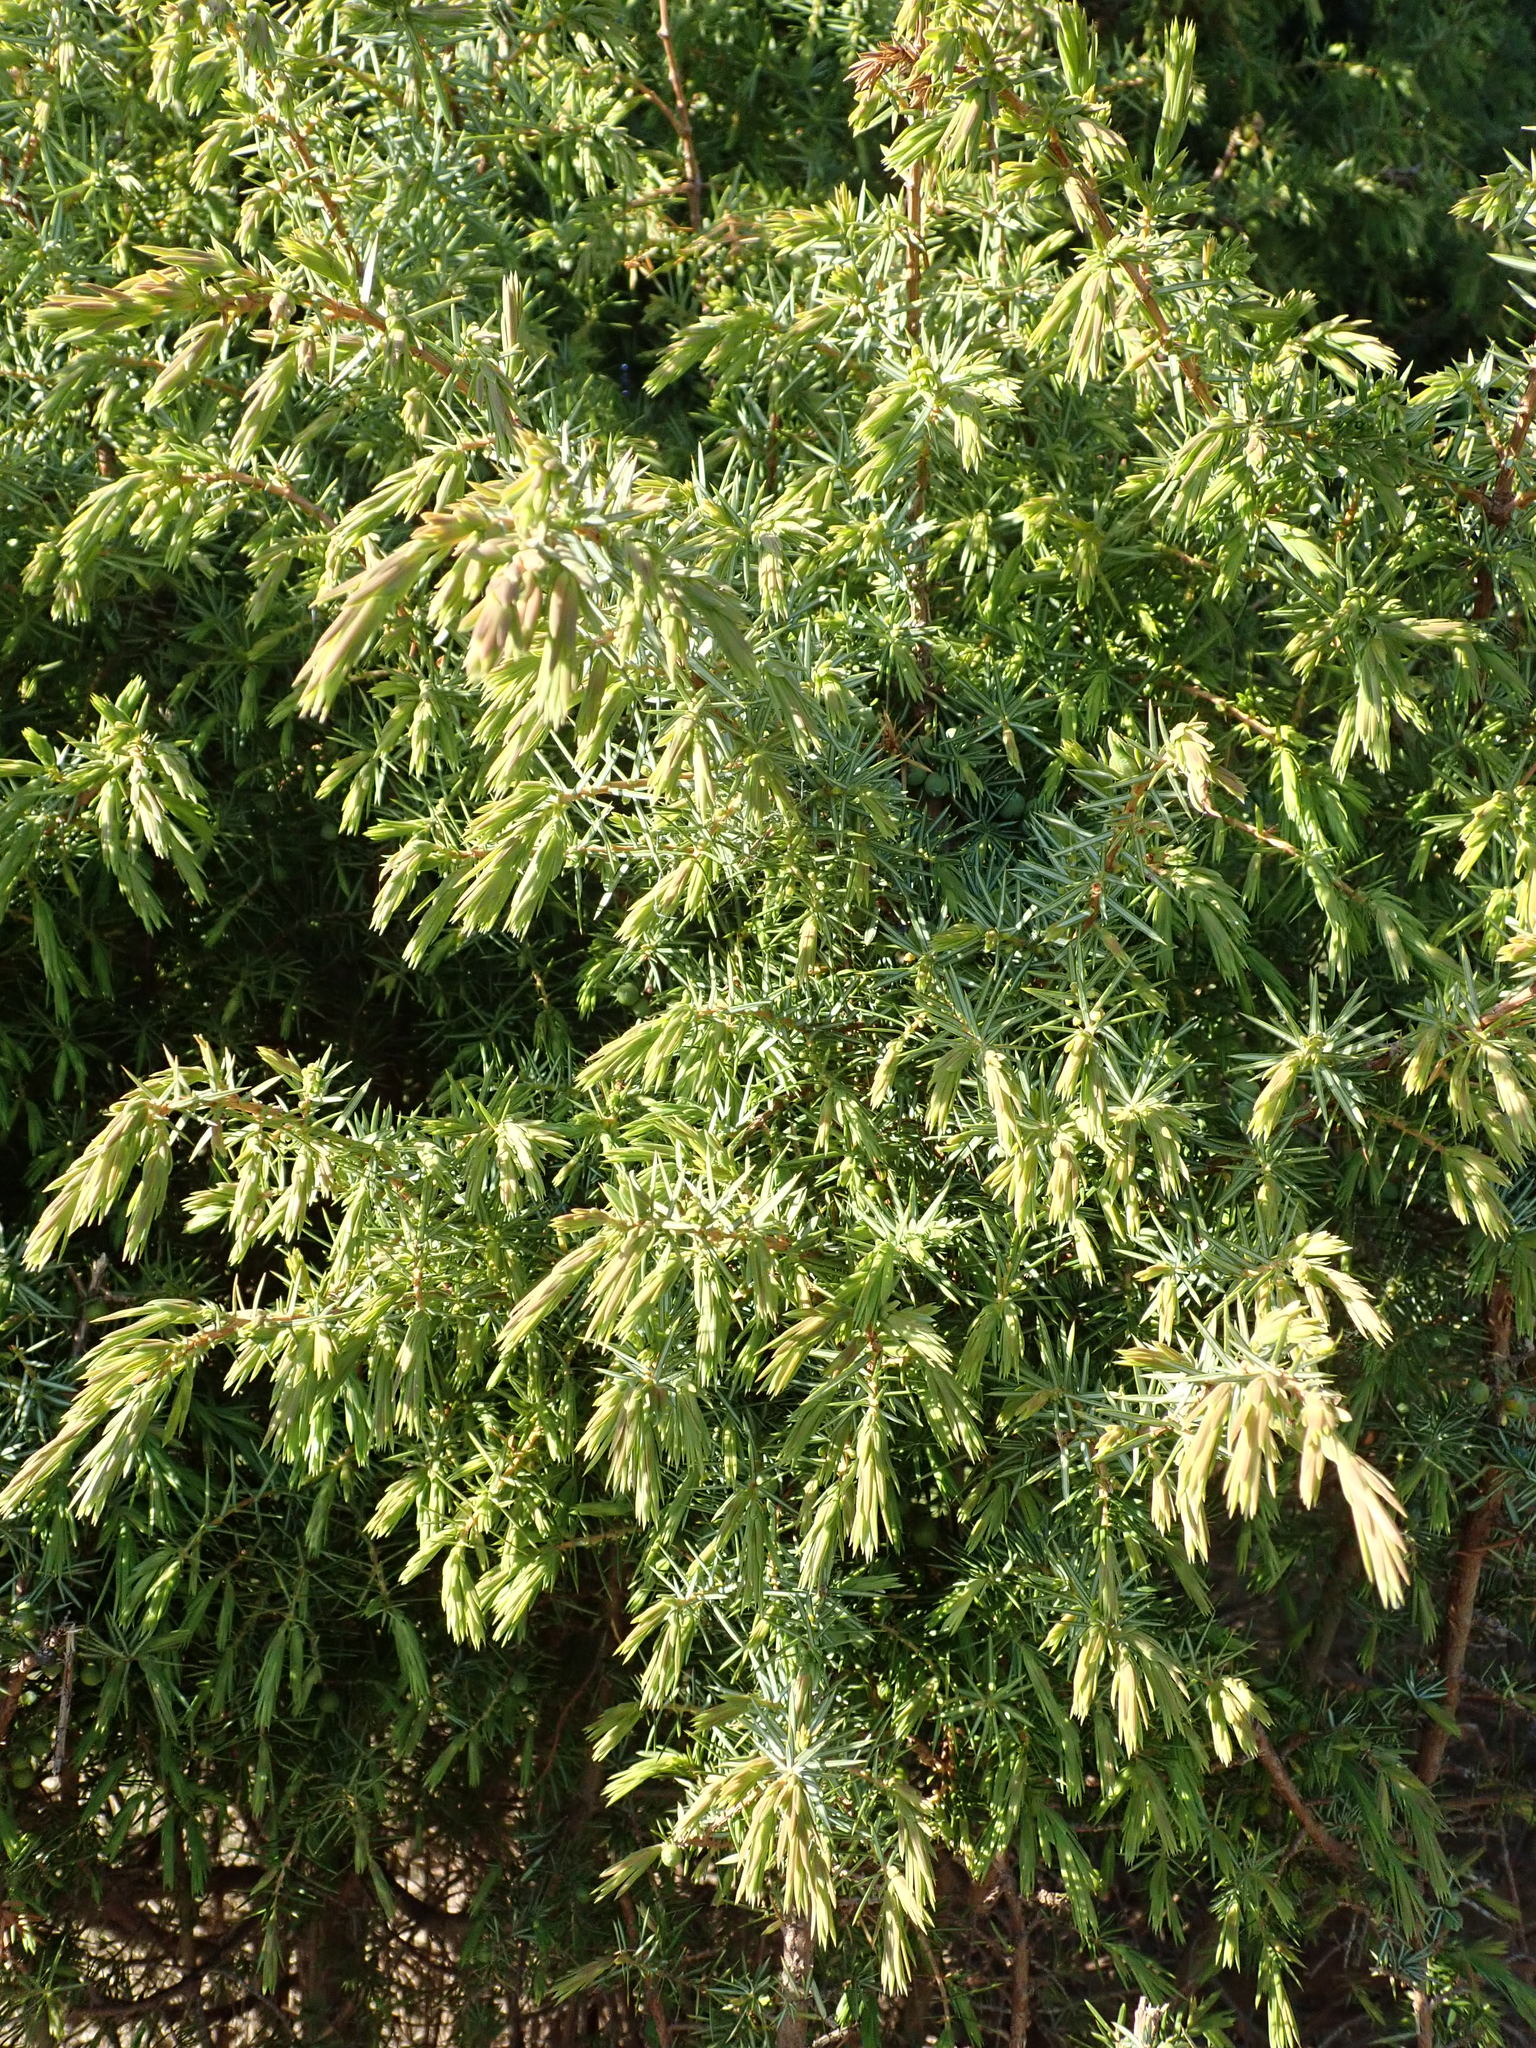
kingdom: Plantae
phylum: Tracheophyta
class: Pinopsida
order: Pinales
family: Cupressaceae
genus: Juniperus
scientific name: Juniperus communis
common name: Common juniper
